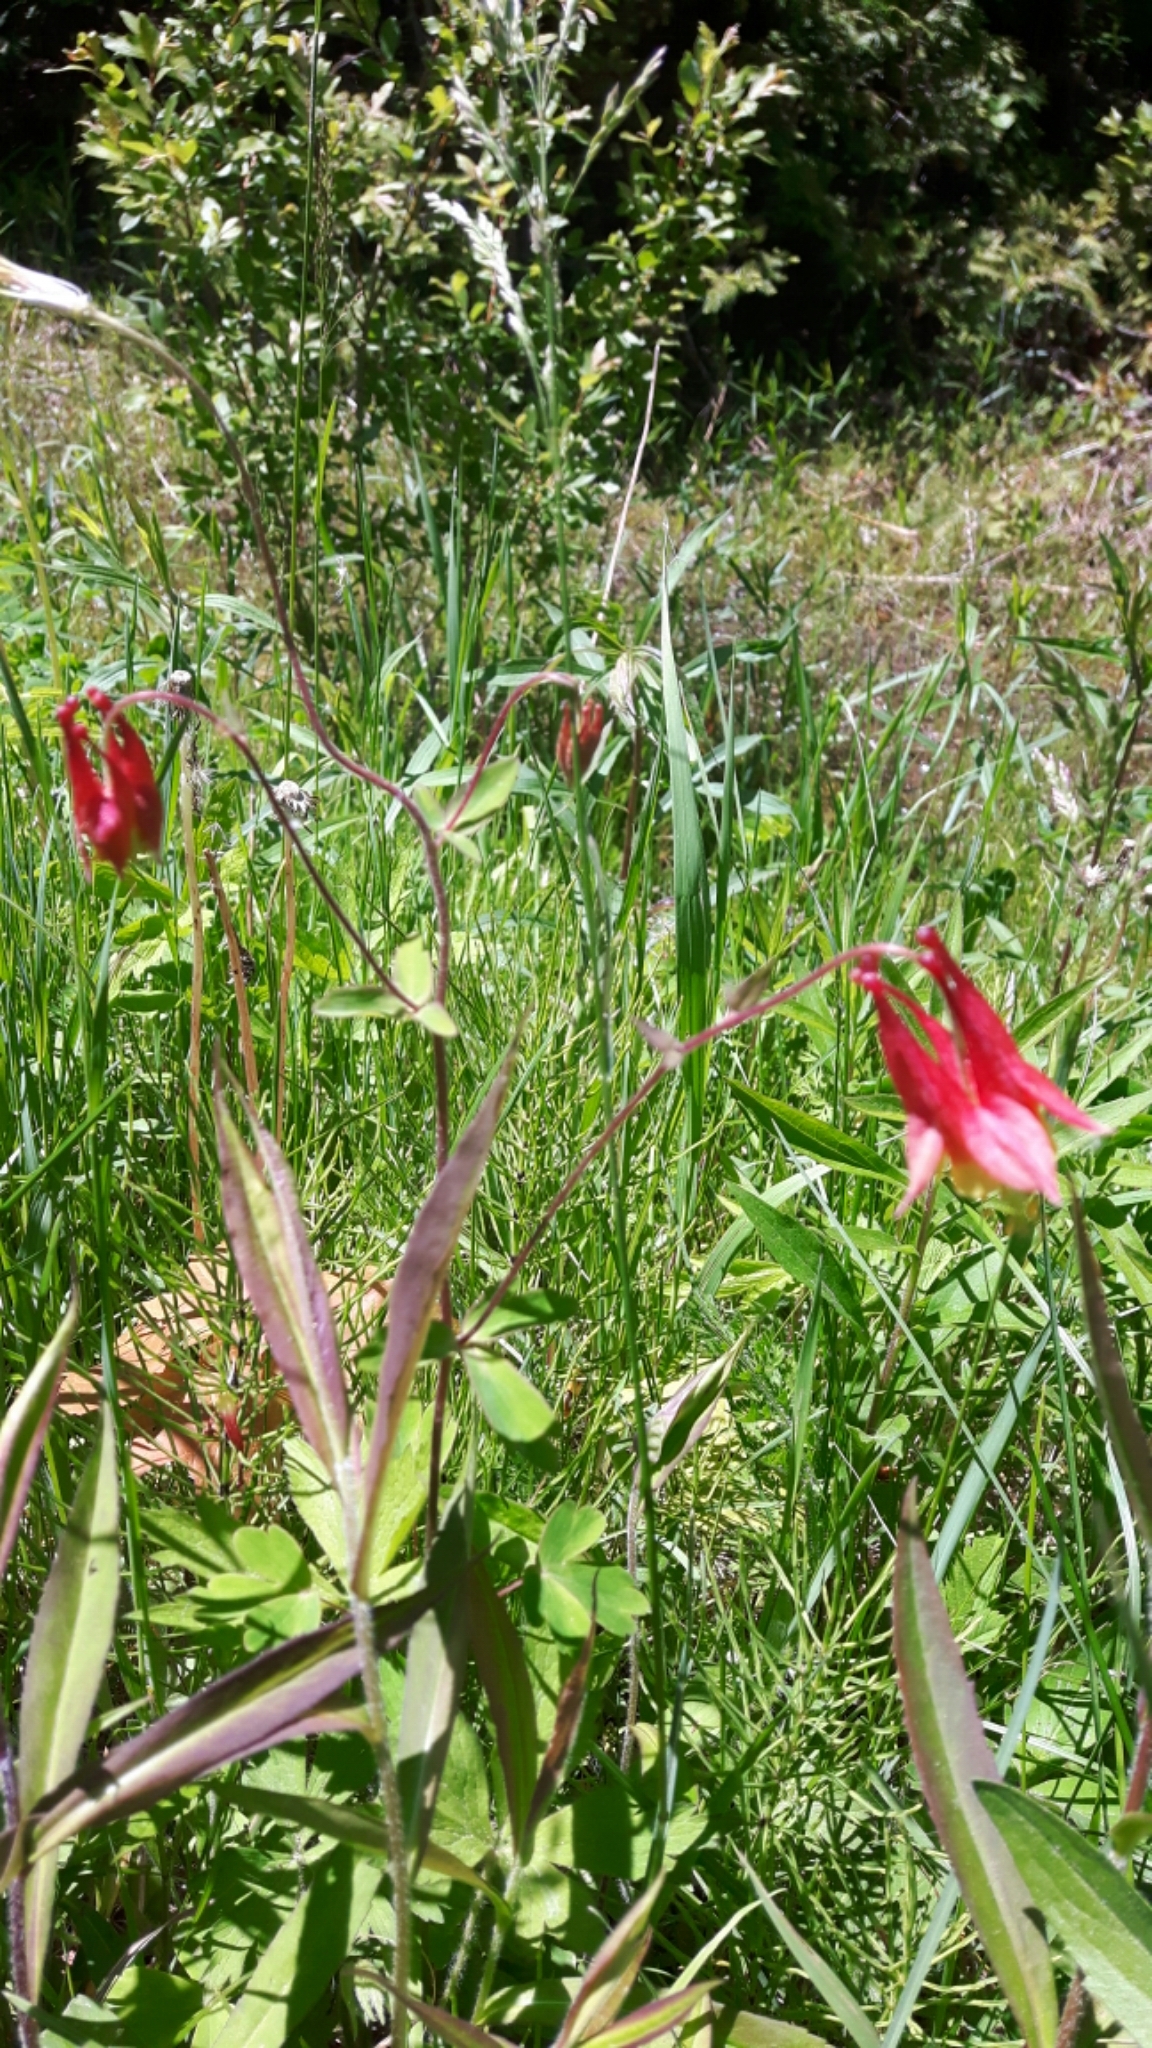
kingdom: Plantae
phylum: Tracheophyta
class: Magnoliopsida
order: Ranunculales
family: Ranunculaceae
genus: Aquilegia
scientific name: Aquilegia canadensis
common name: American columbine
